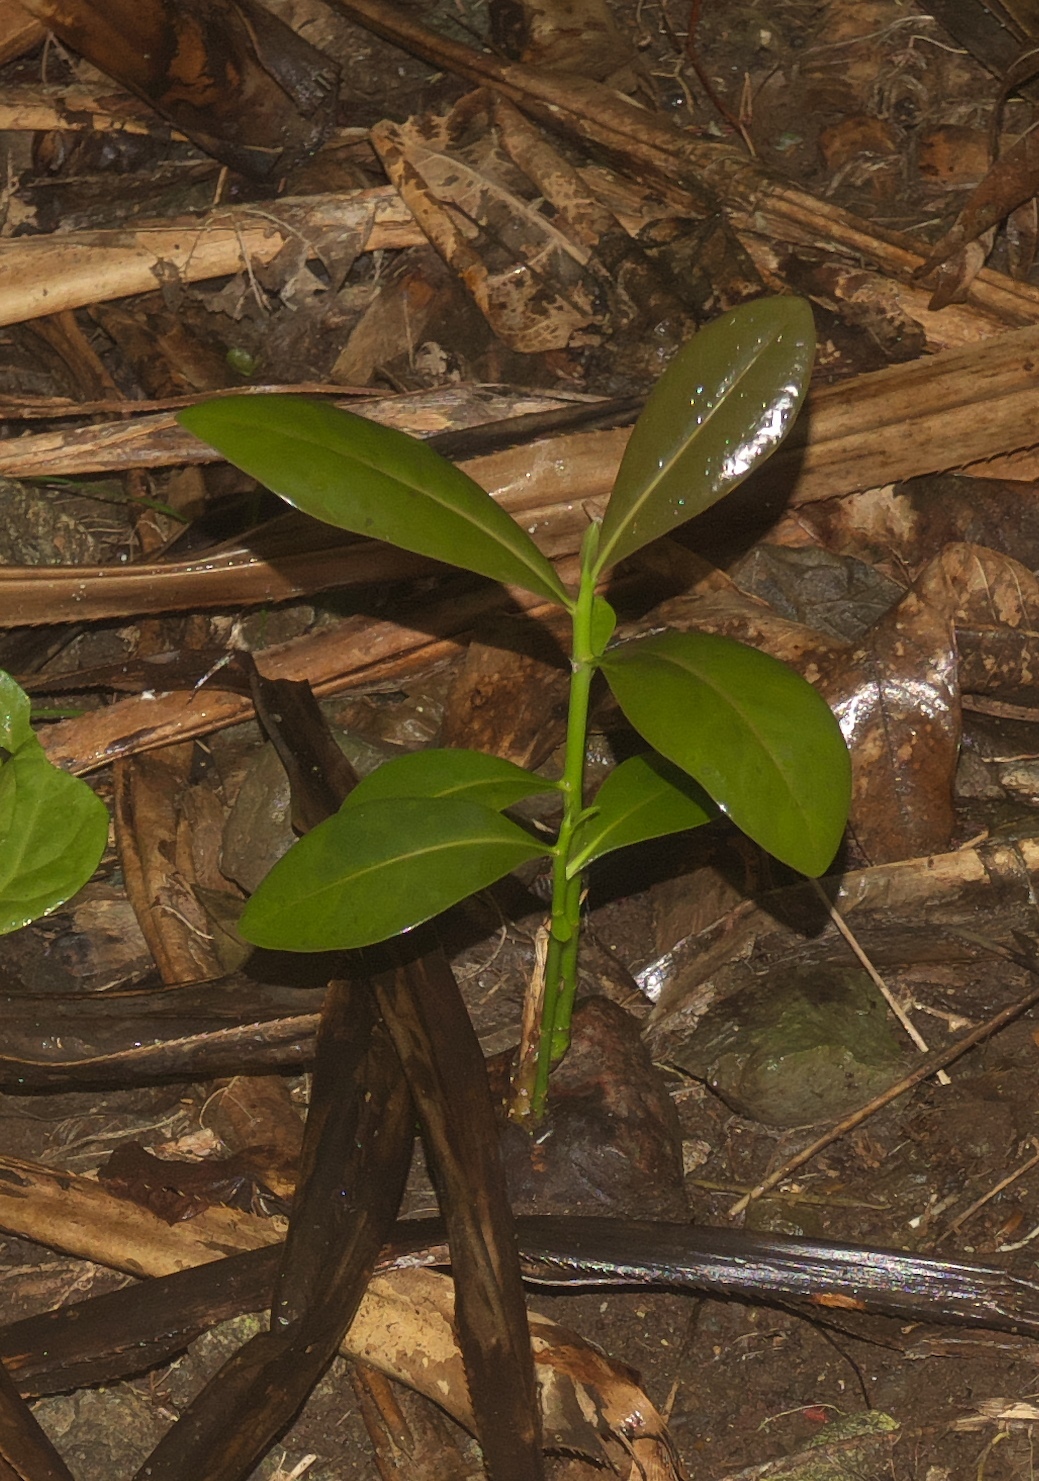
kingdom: Plantae
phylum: Tracheophyta
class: Magnoliopsida
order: Ericales
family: Lecythidaceae
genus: Barringtonia
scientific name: Barringtonia asiatica
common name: Mango-pine
